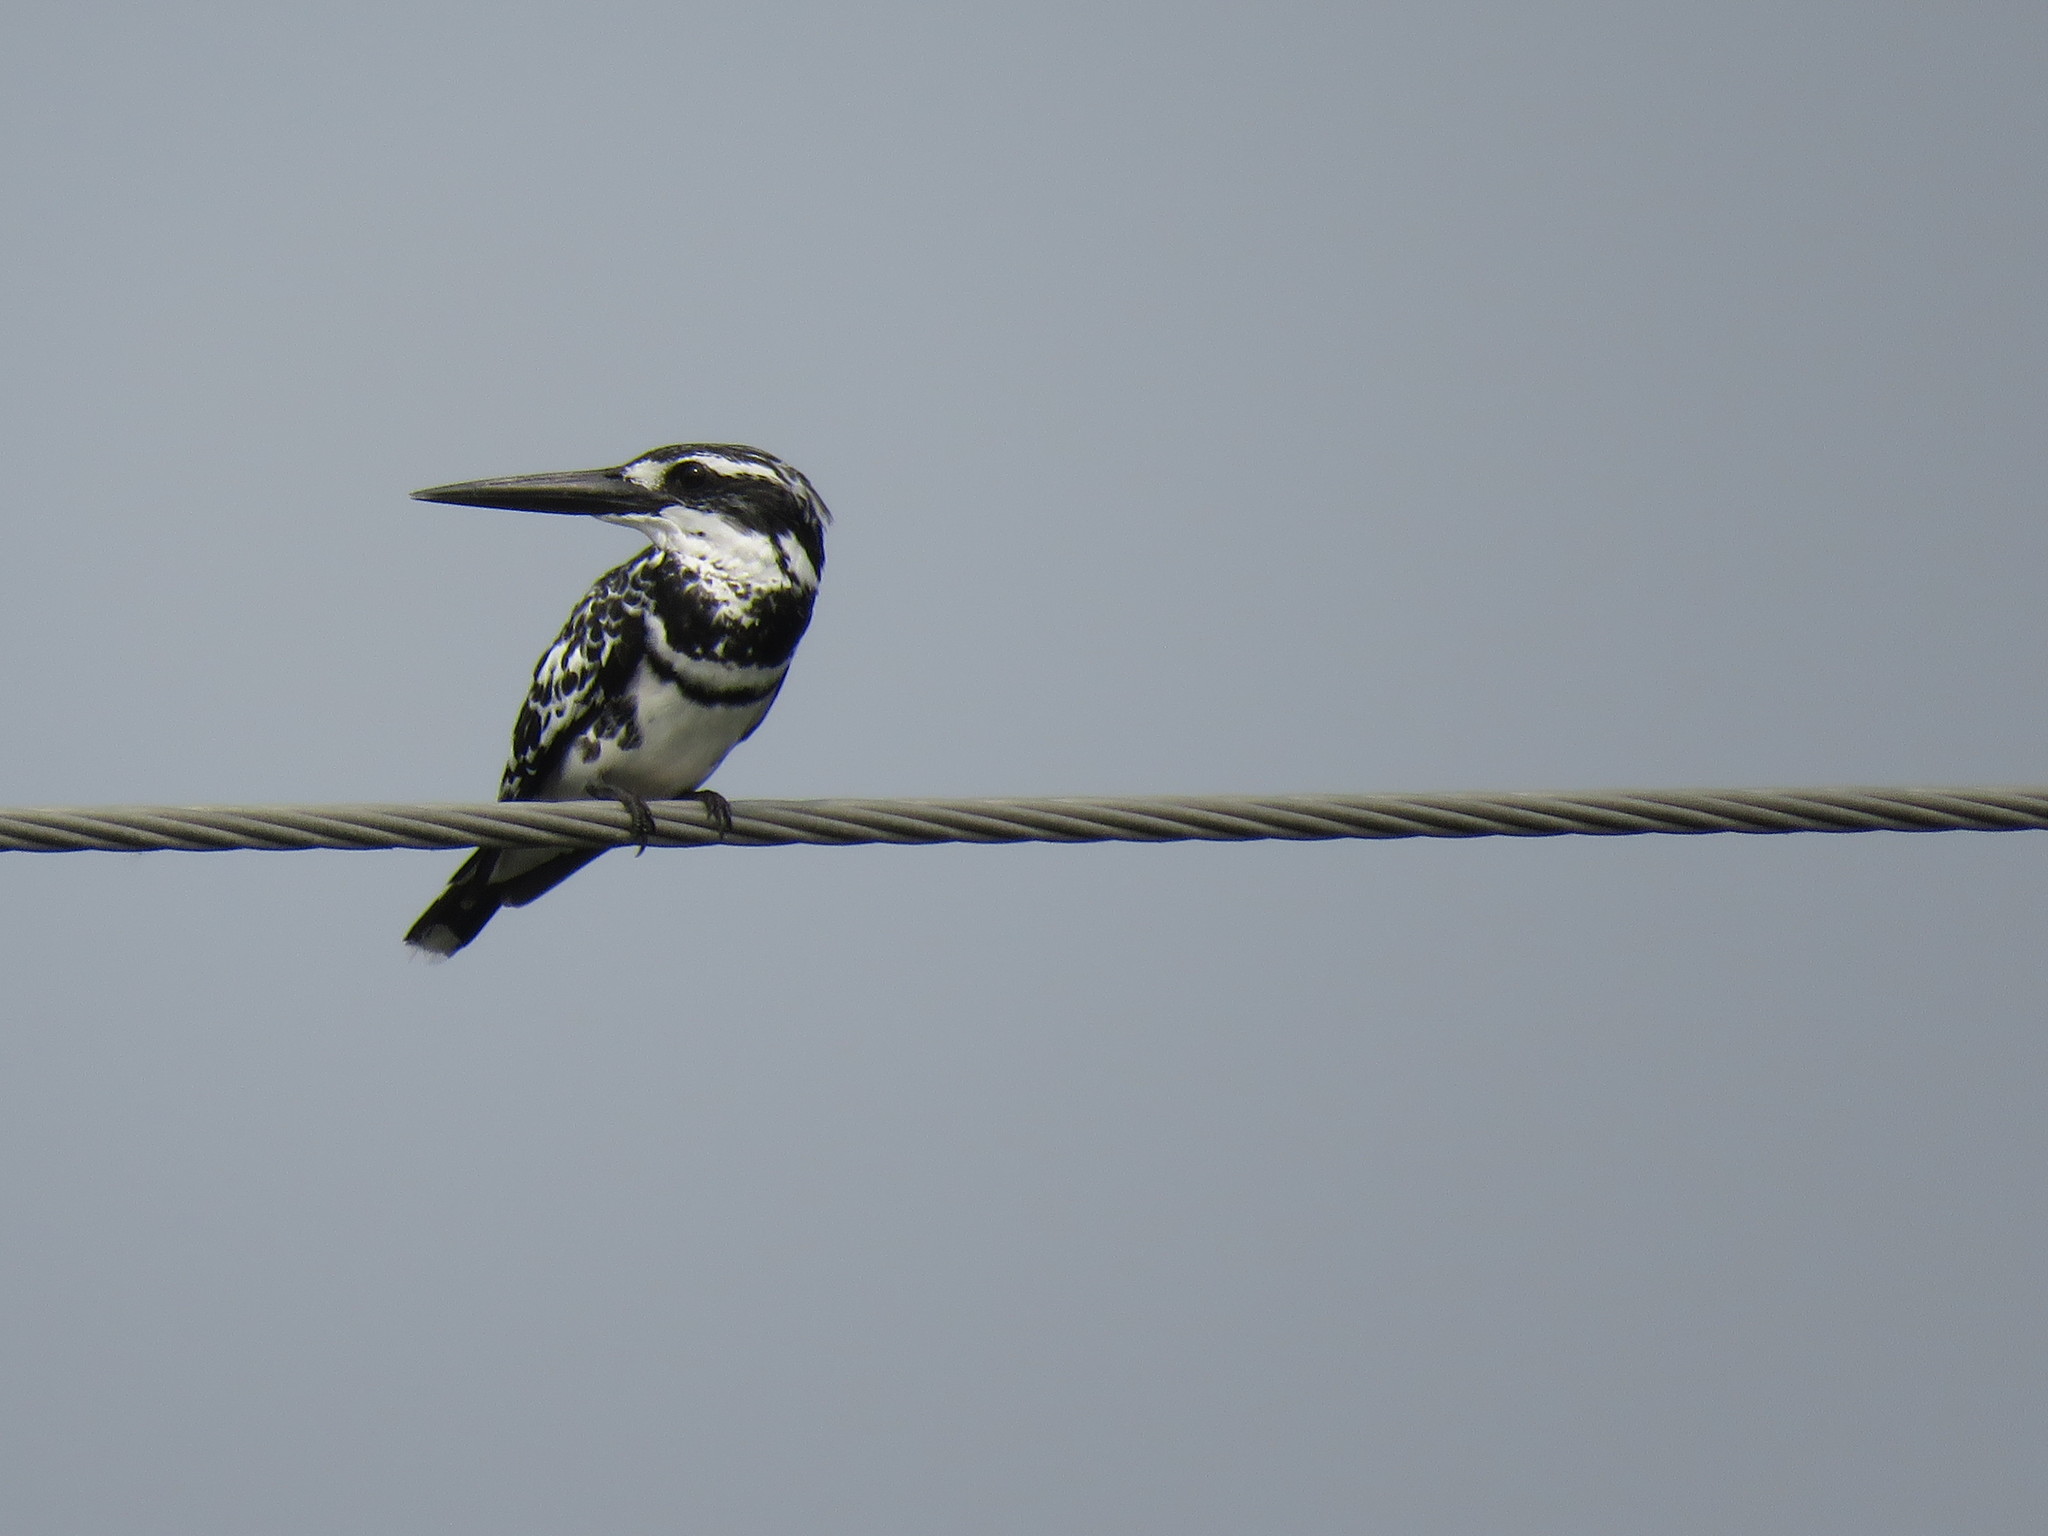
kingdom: Animalia
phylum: Chordata
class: Aves
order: Coraciiformes
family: Alcedinidae
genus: Ceryle
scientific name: Ceryle rudis
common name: Pied kingfisher
